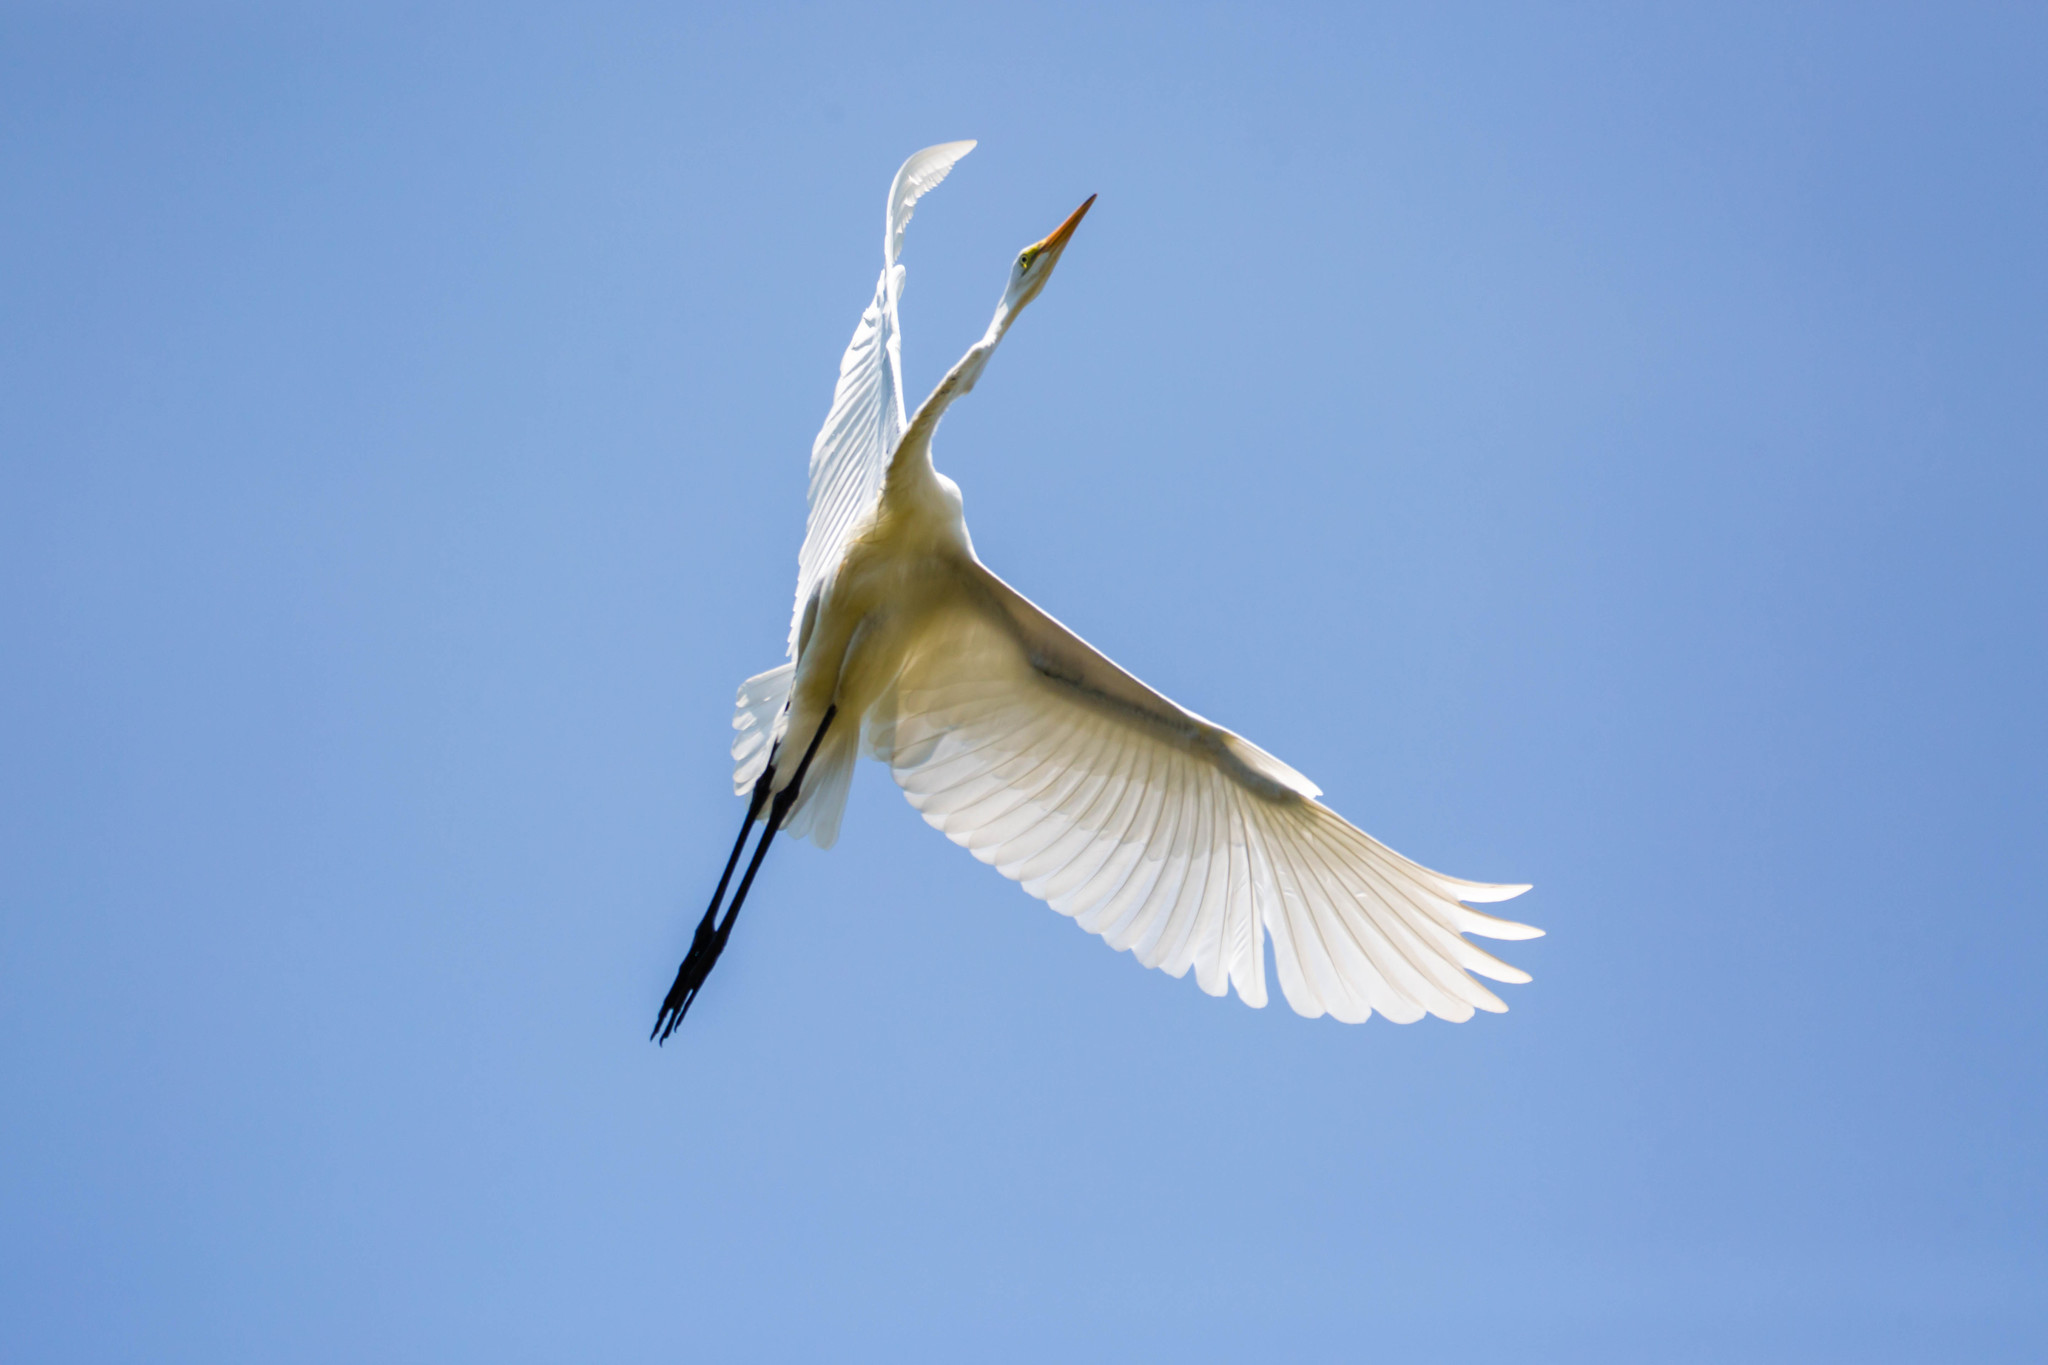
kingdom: Animalia
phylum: Chordata
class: Aves
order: Pelecaniformes
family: Ardeidae
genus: Ardea
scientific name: Ardea alba
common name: Great egret
